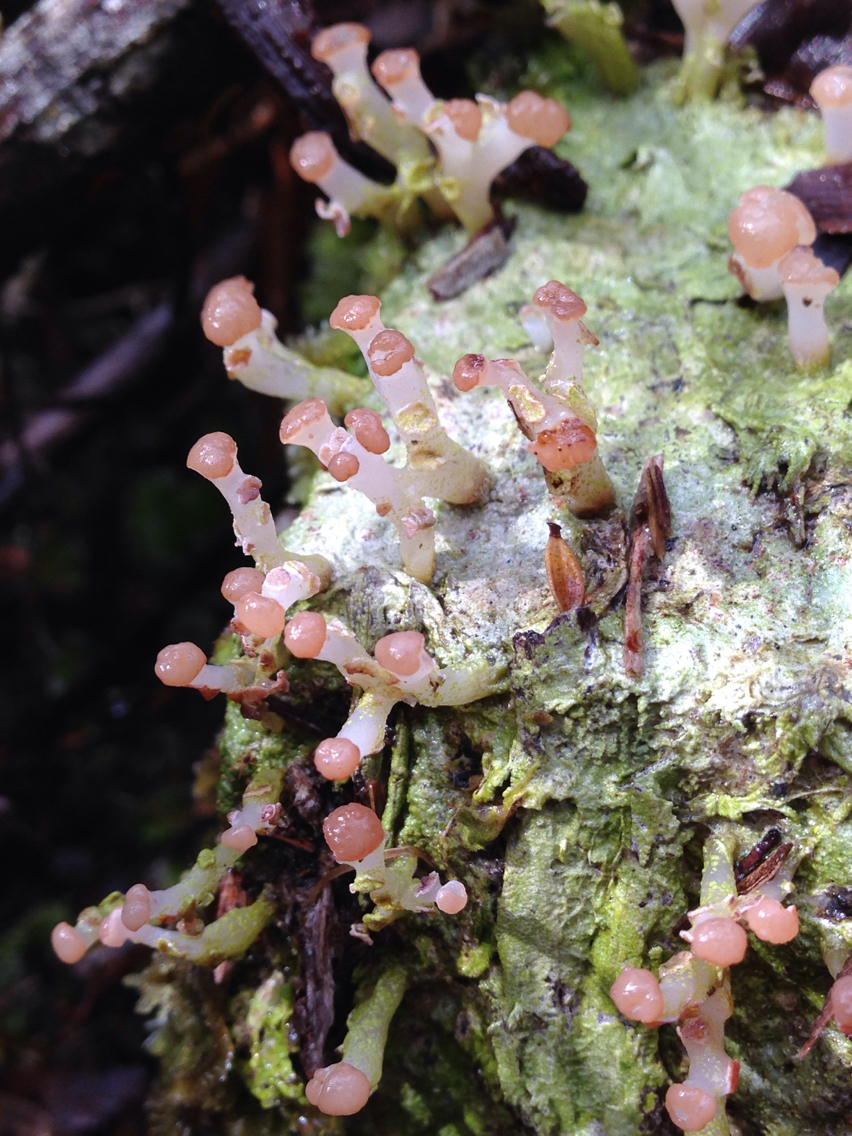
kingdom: Fungi
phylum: Ascomycota
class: Lecanoromycetes
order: Baeomycetales
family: Baeomycetaceae
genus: Baeomyces
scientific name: Baeomyces heteromorphus
